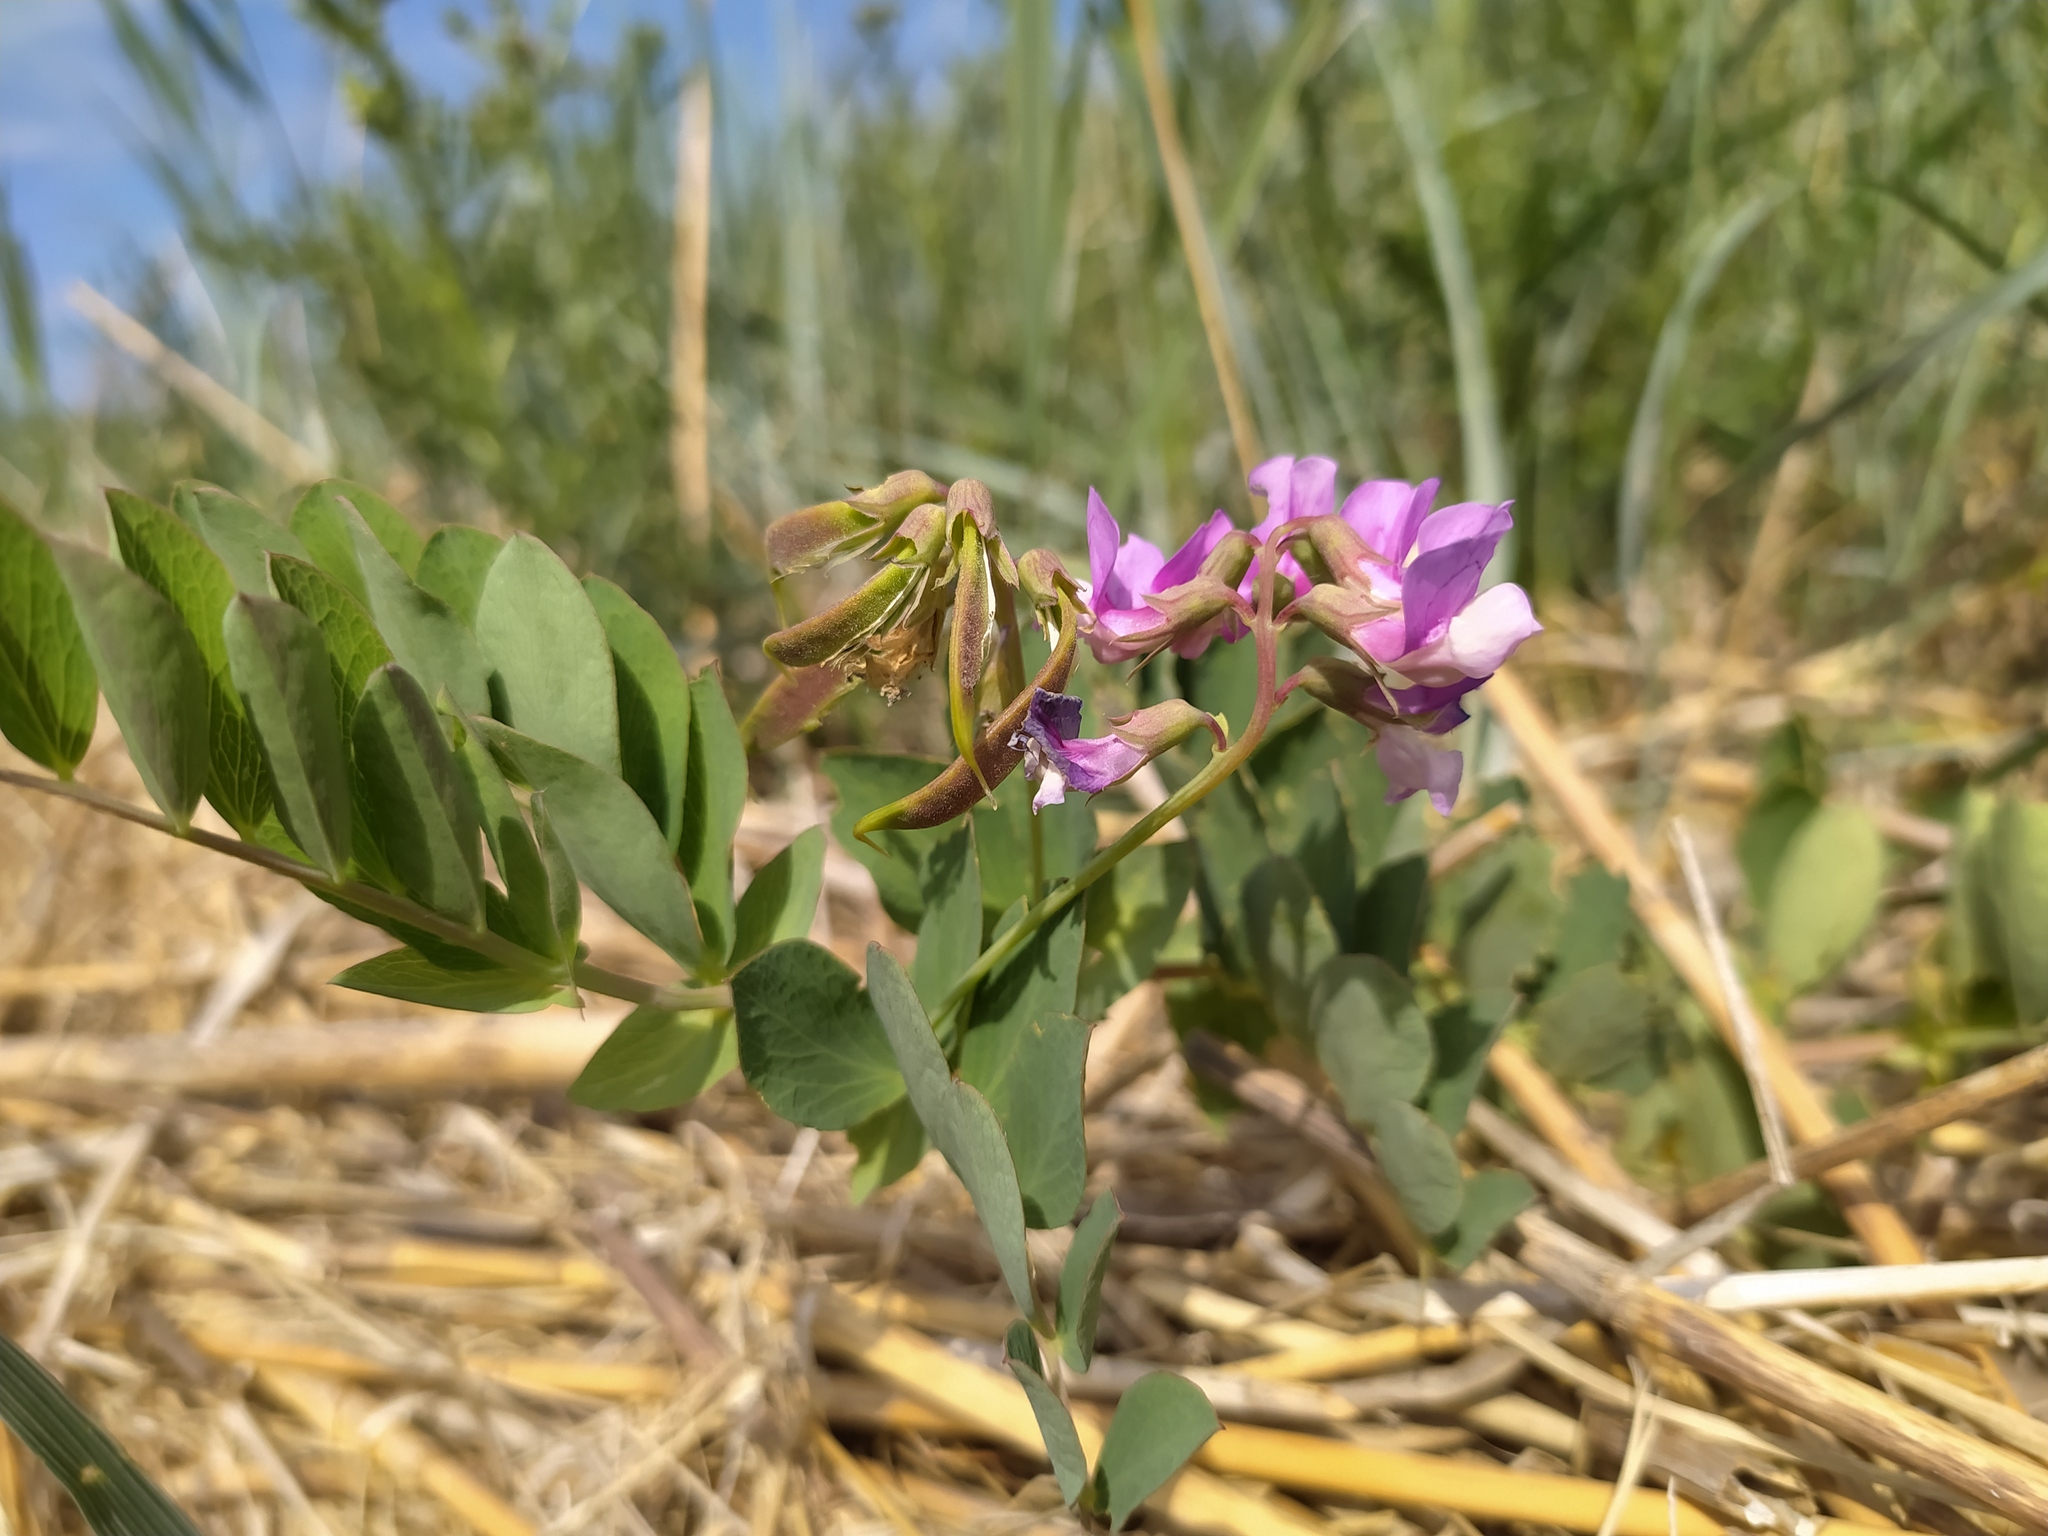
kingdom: Plantae
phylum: Tracheophyta
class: Magnoliopsida
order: Fabales
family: Fabaceae
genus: Lathyrus
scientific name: Lathyrus japonicus
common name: Sea pea
